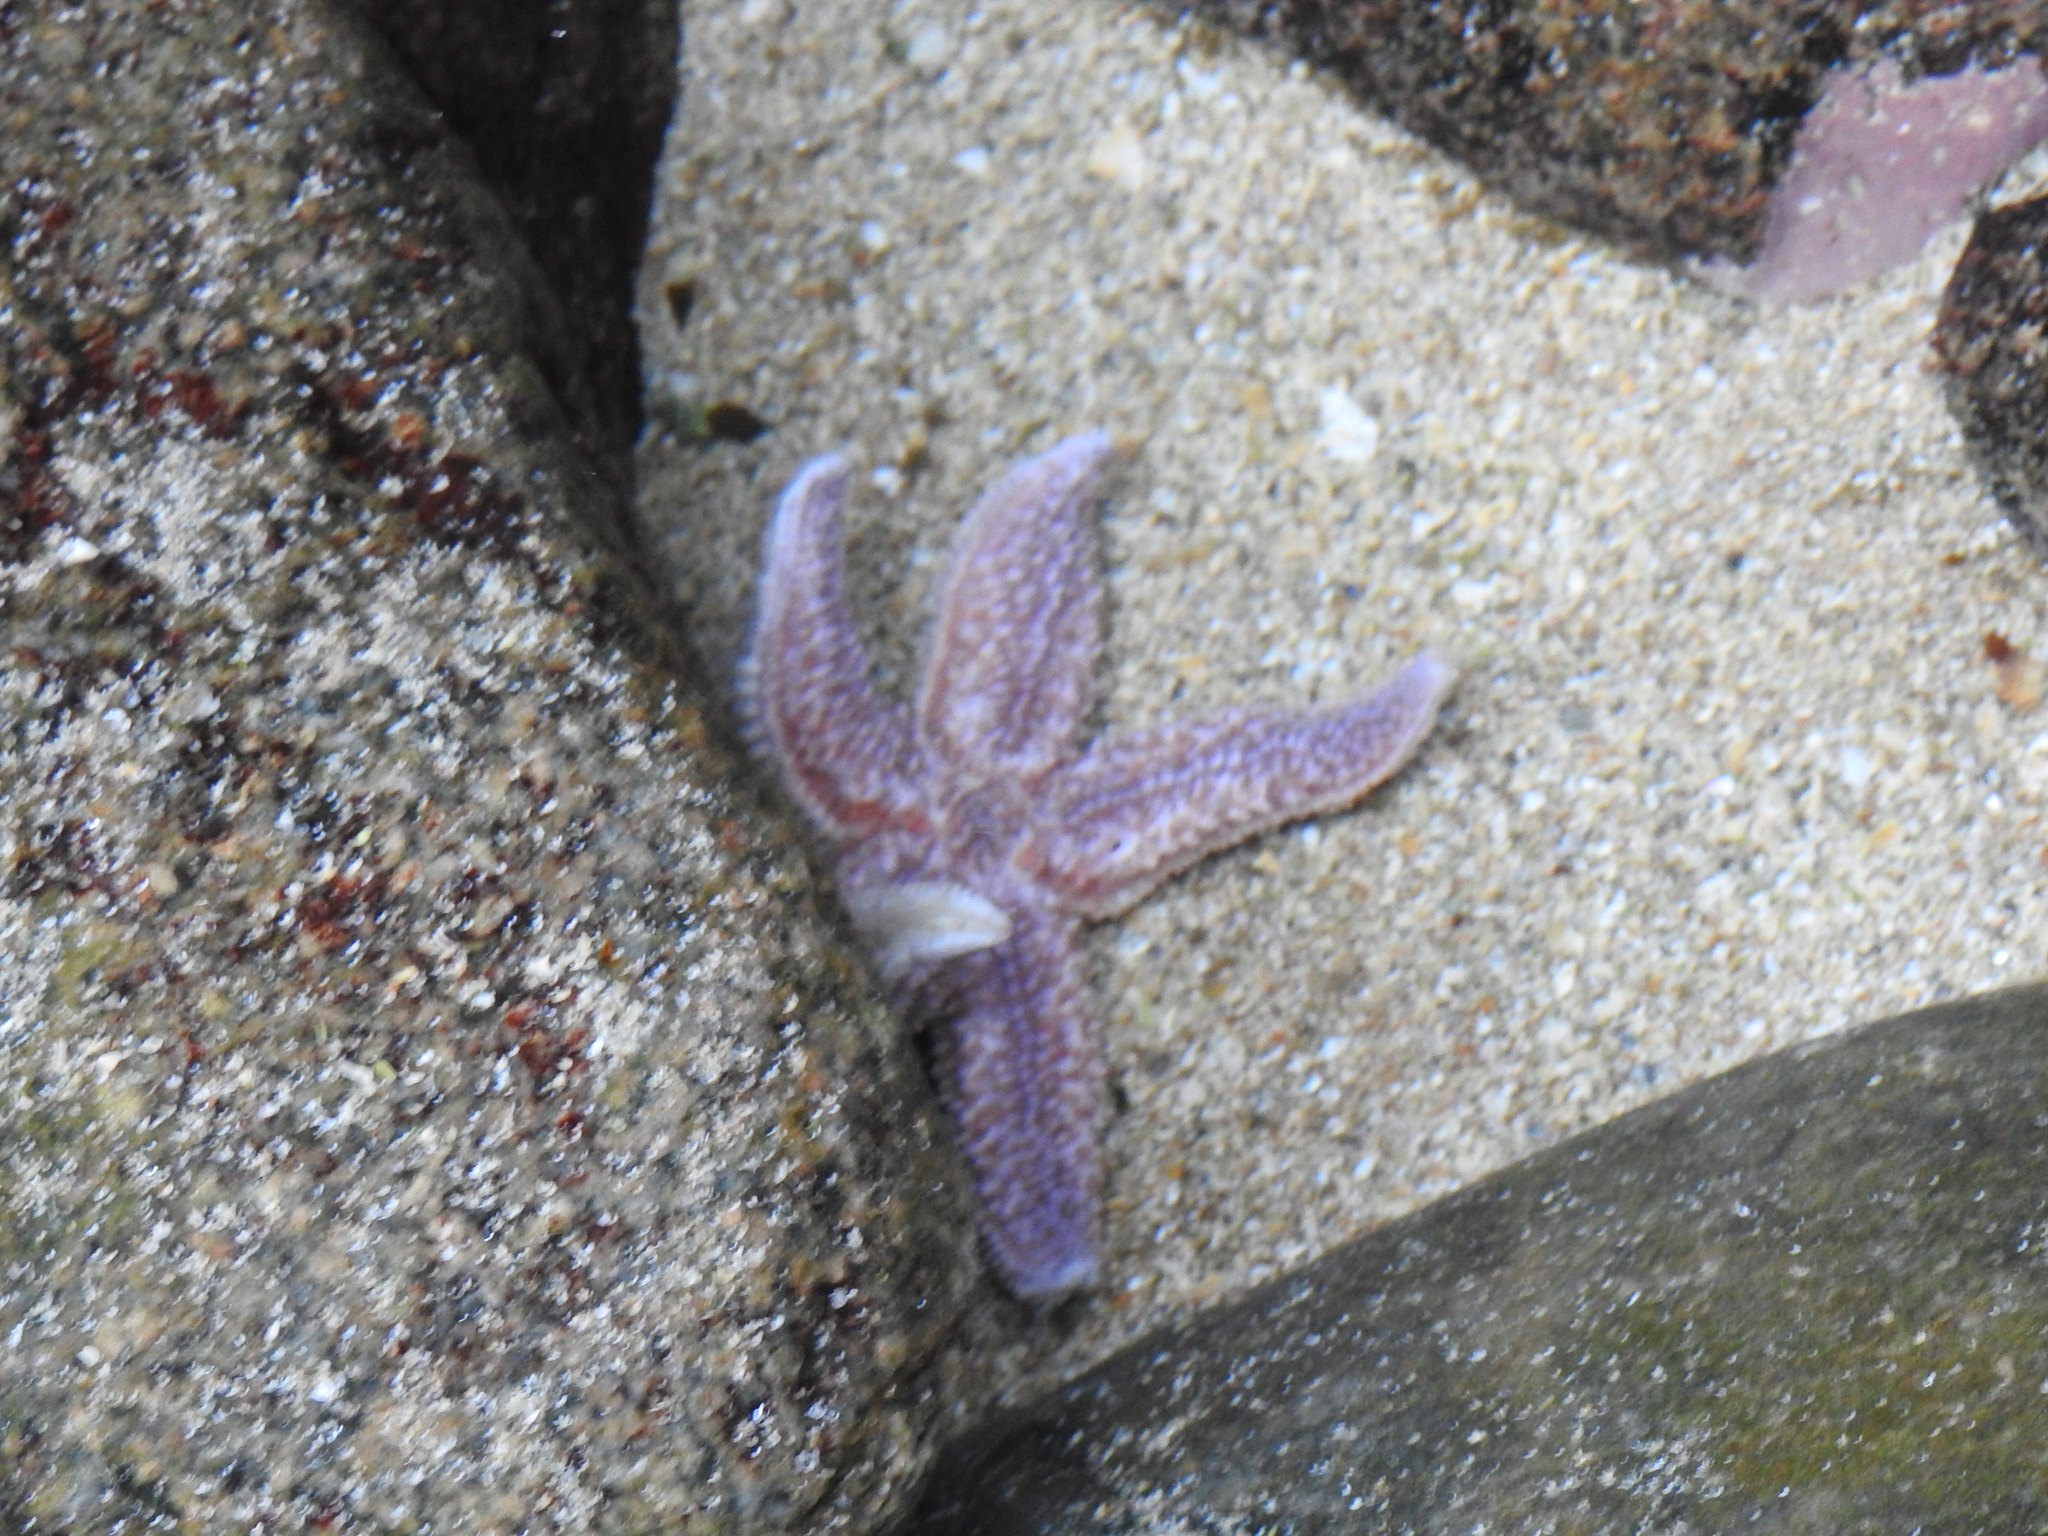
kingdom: Animalia
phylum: Echinodermata
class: Asteroidea
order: Forcipulatida
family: Asteriidae
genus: Asterias
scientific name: Asterias
